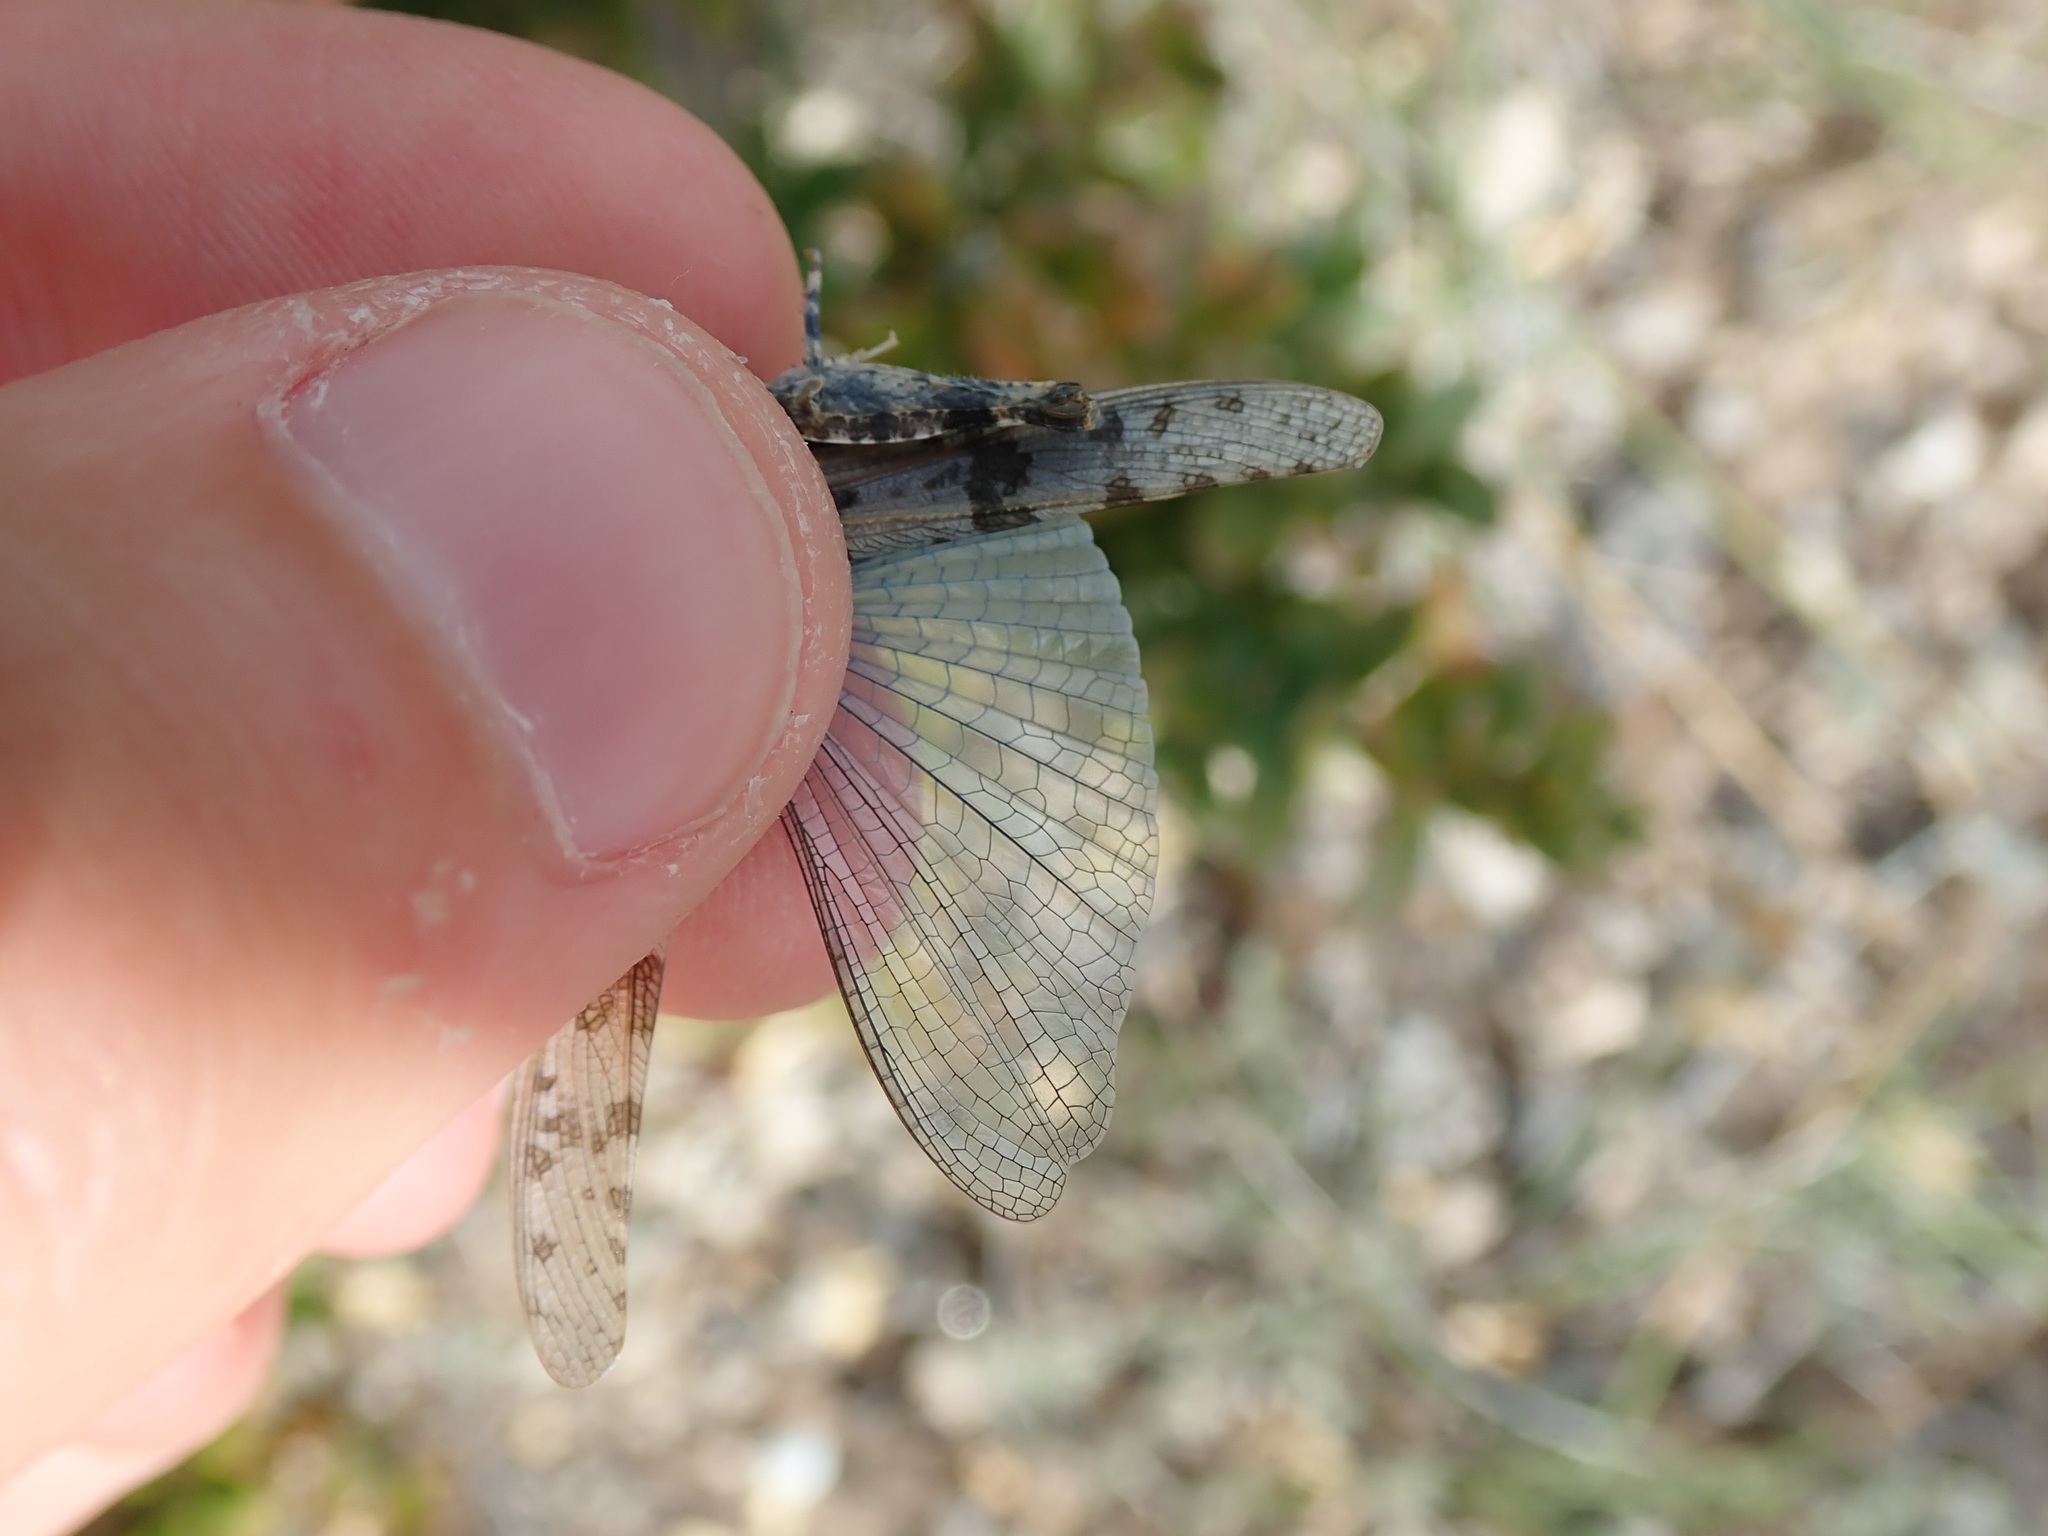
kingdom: Animalia
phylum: Arthropoda
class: Insecta
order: Orthoptera
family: Acrididae
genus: Sphingonotus
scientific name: Sphingonotus caerulans
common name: Blue-winged locust
